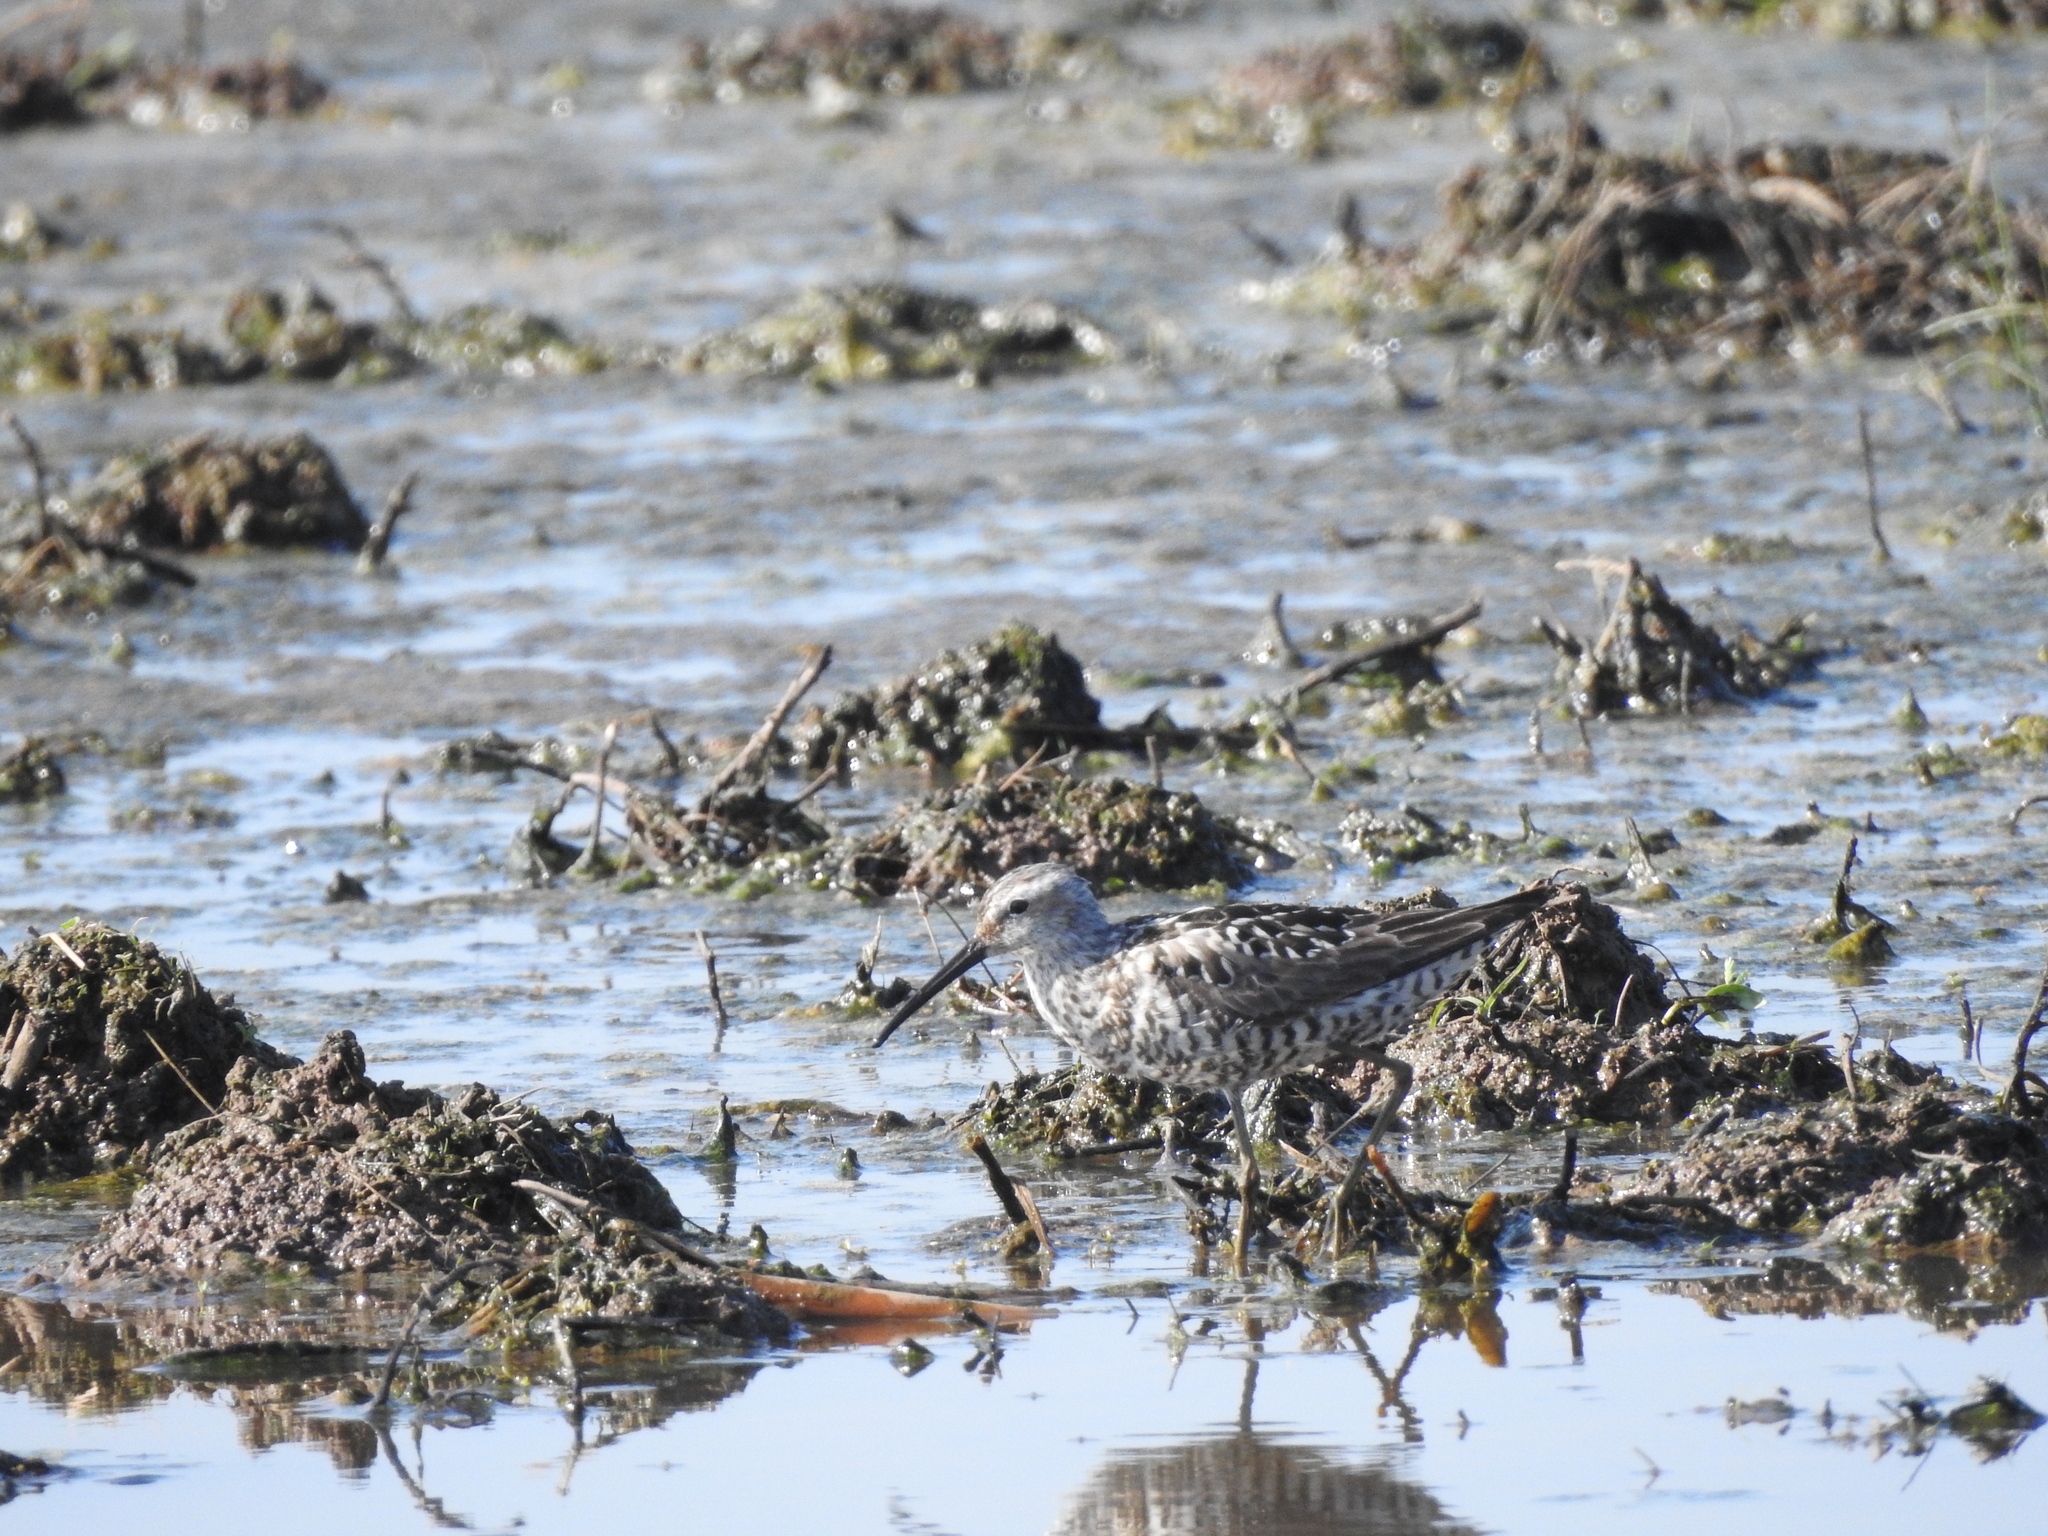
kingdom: Animalia
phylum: Chordata
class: Aves
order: Charadriiformes
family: Scolopacidae
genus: Calidris
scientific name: Calidris himantopus
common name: Stilt sandpiper
